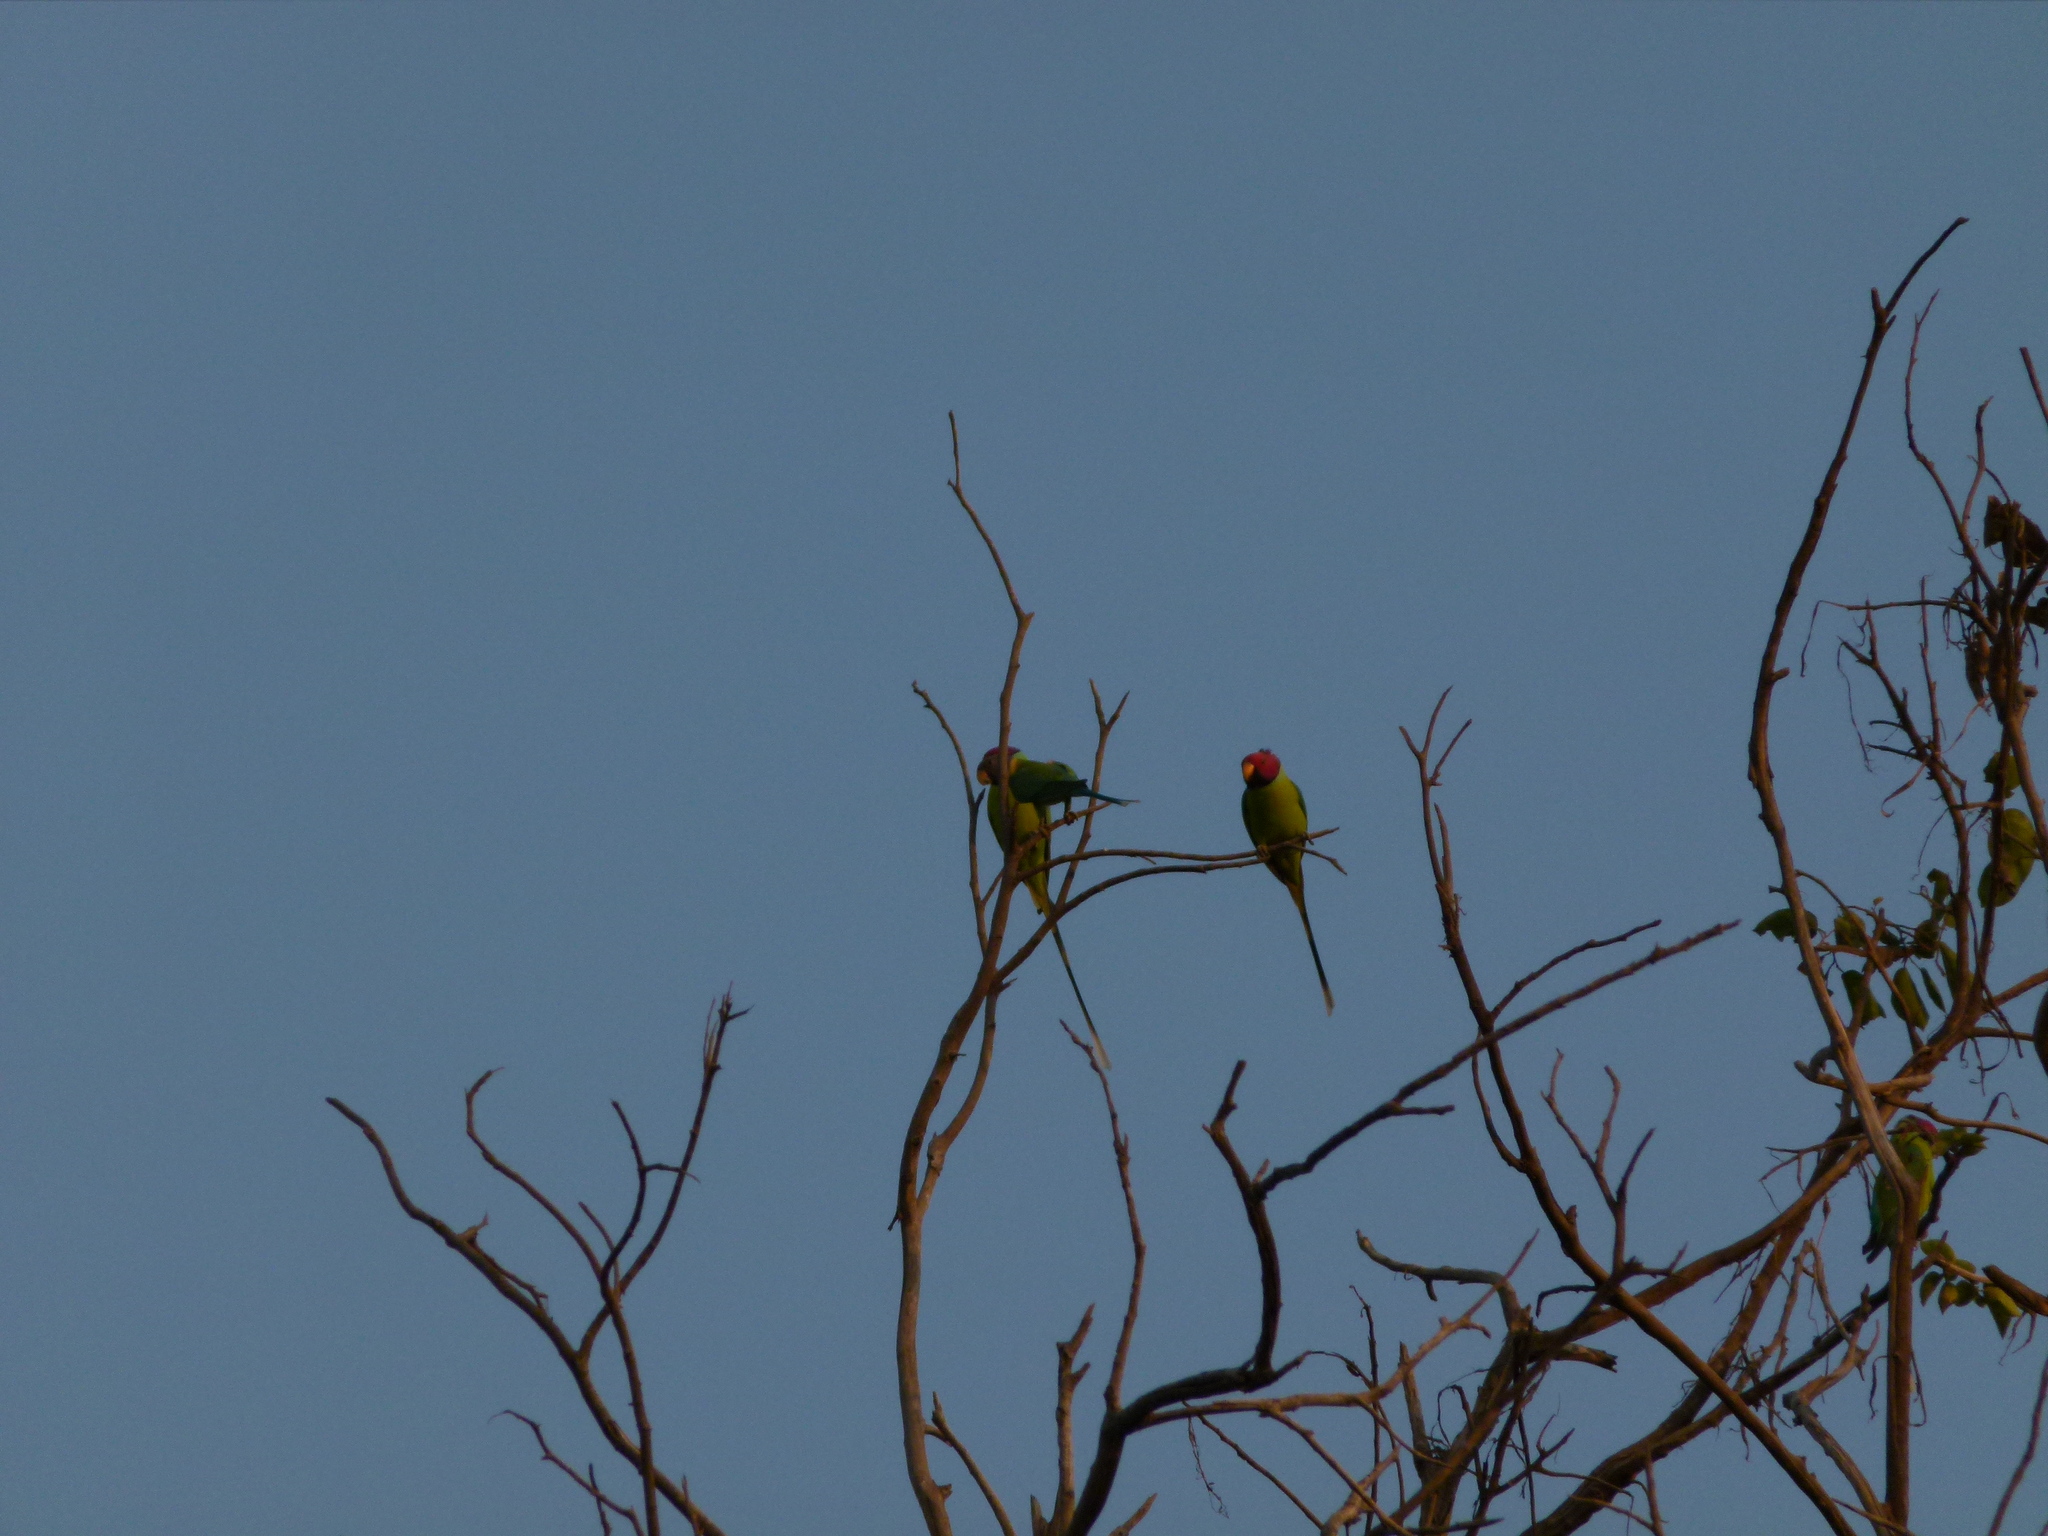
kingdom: Animalia
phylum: Chordata
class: Aves
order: Psittaciformes
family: Psittacidae
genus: Psittacula
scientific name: Psittacula cyanocephala
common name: Plum-headed parakeet
